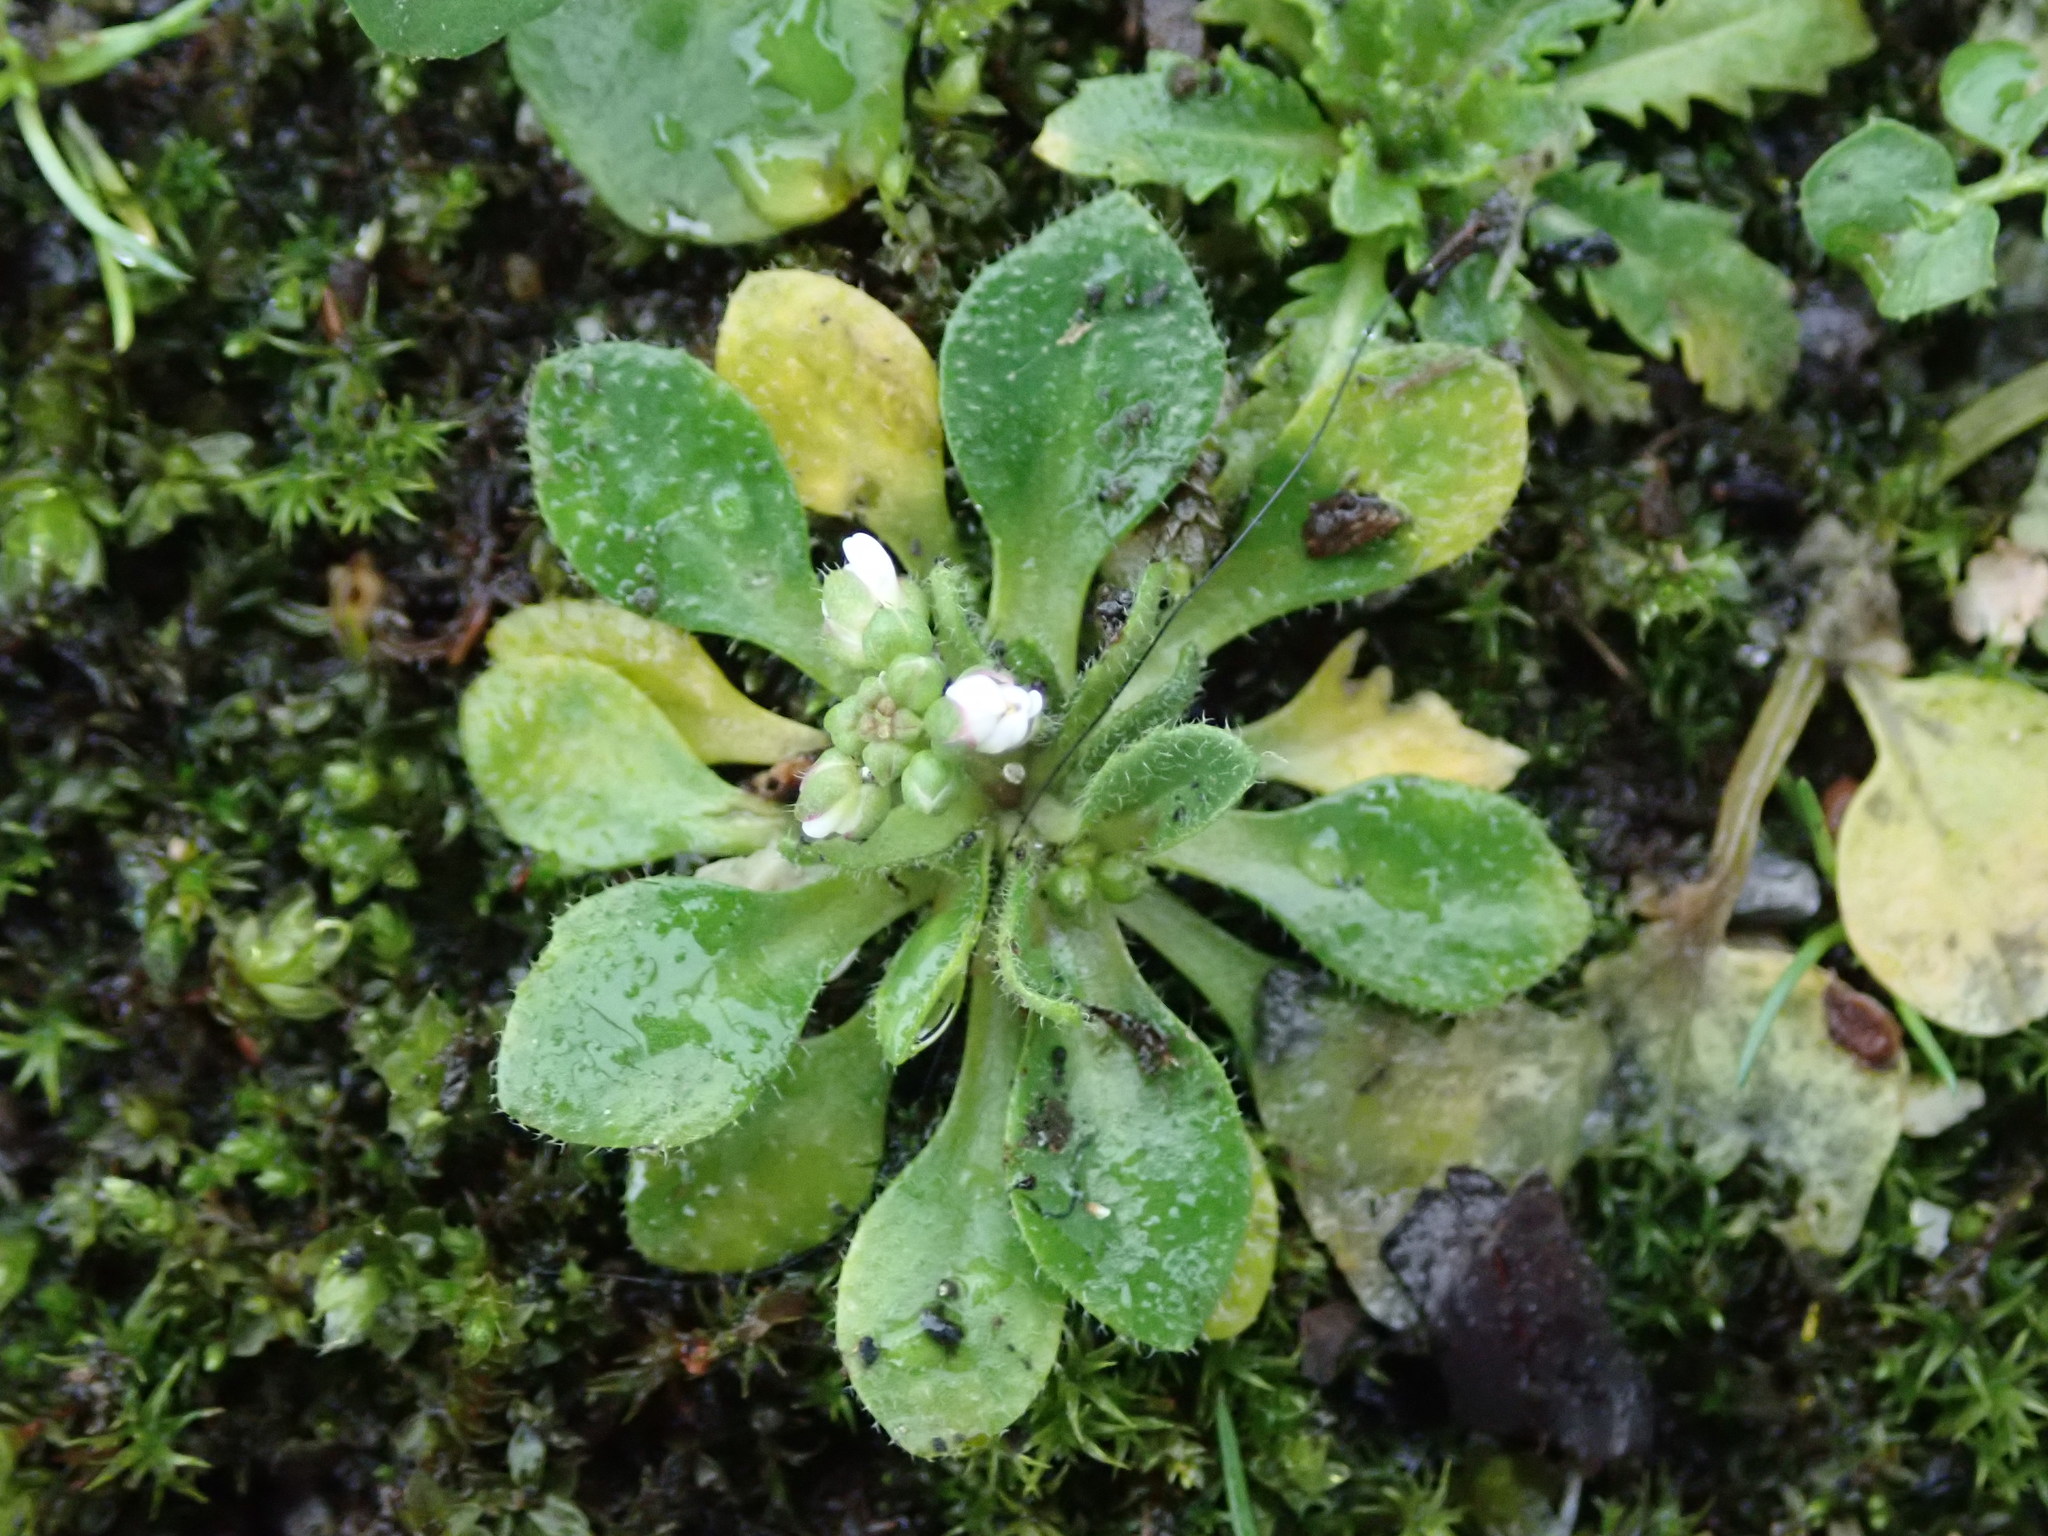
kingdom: Plantae
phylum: Tracheophyta
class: Magnoliopsida
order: Brassicales
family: Brassicaceae
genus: Draba
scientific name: Draba verna
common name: Spring draba
